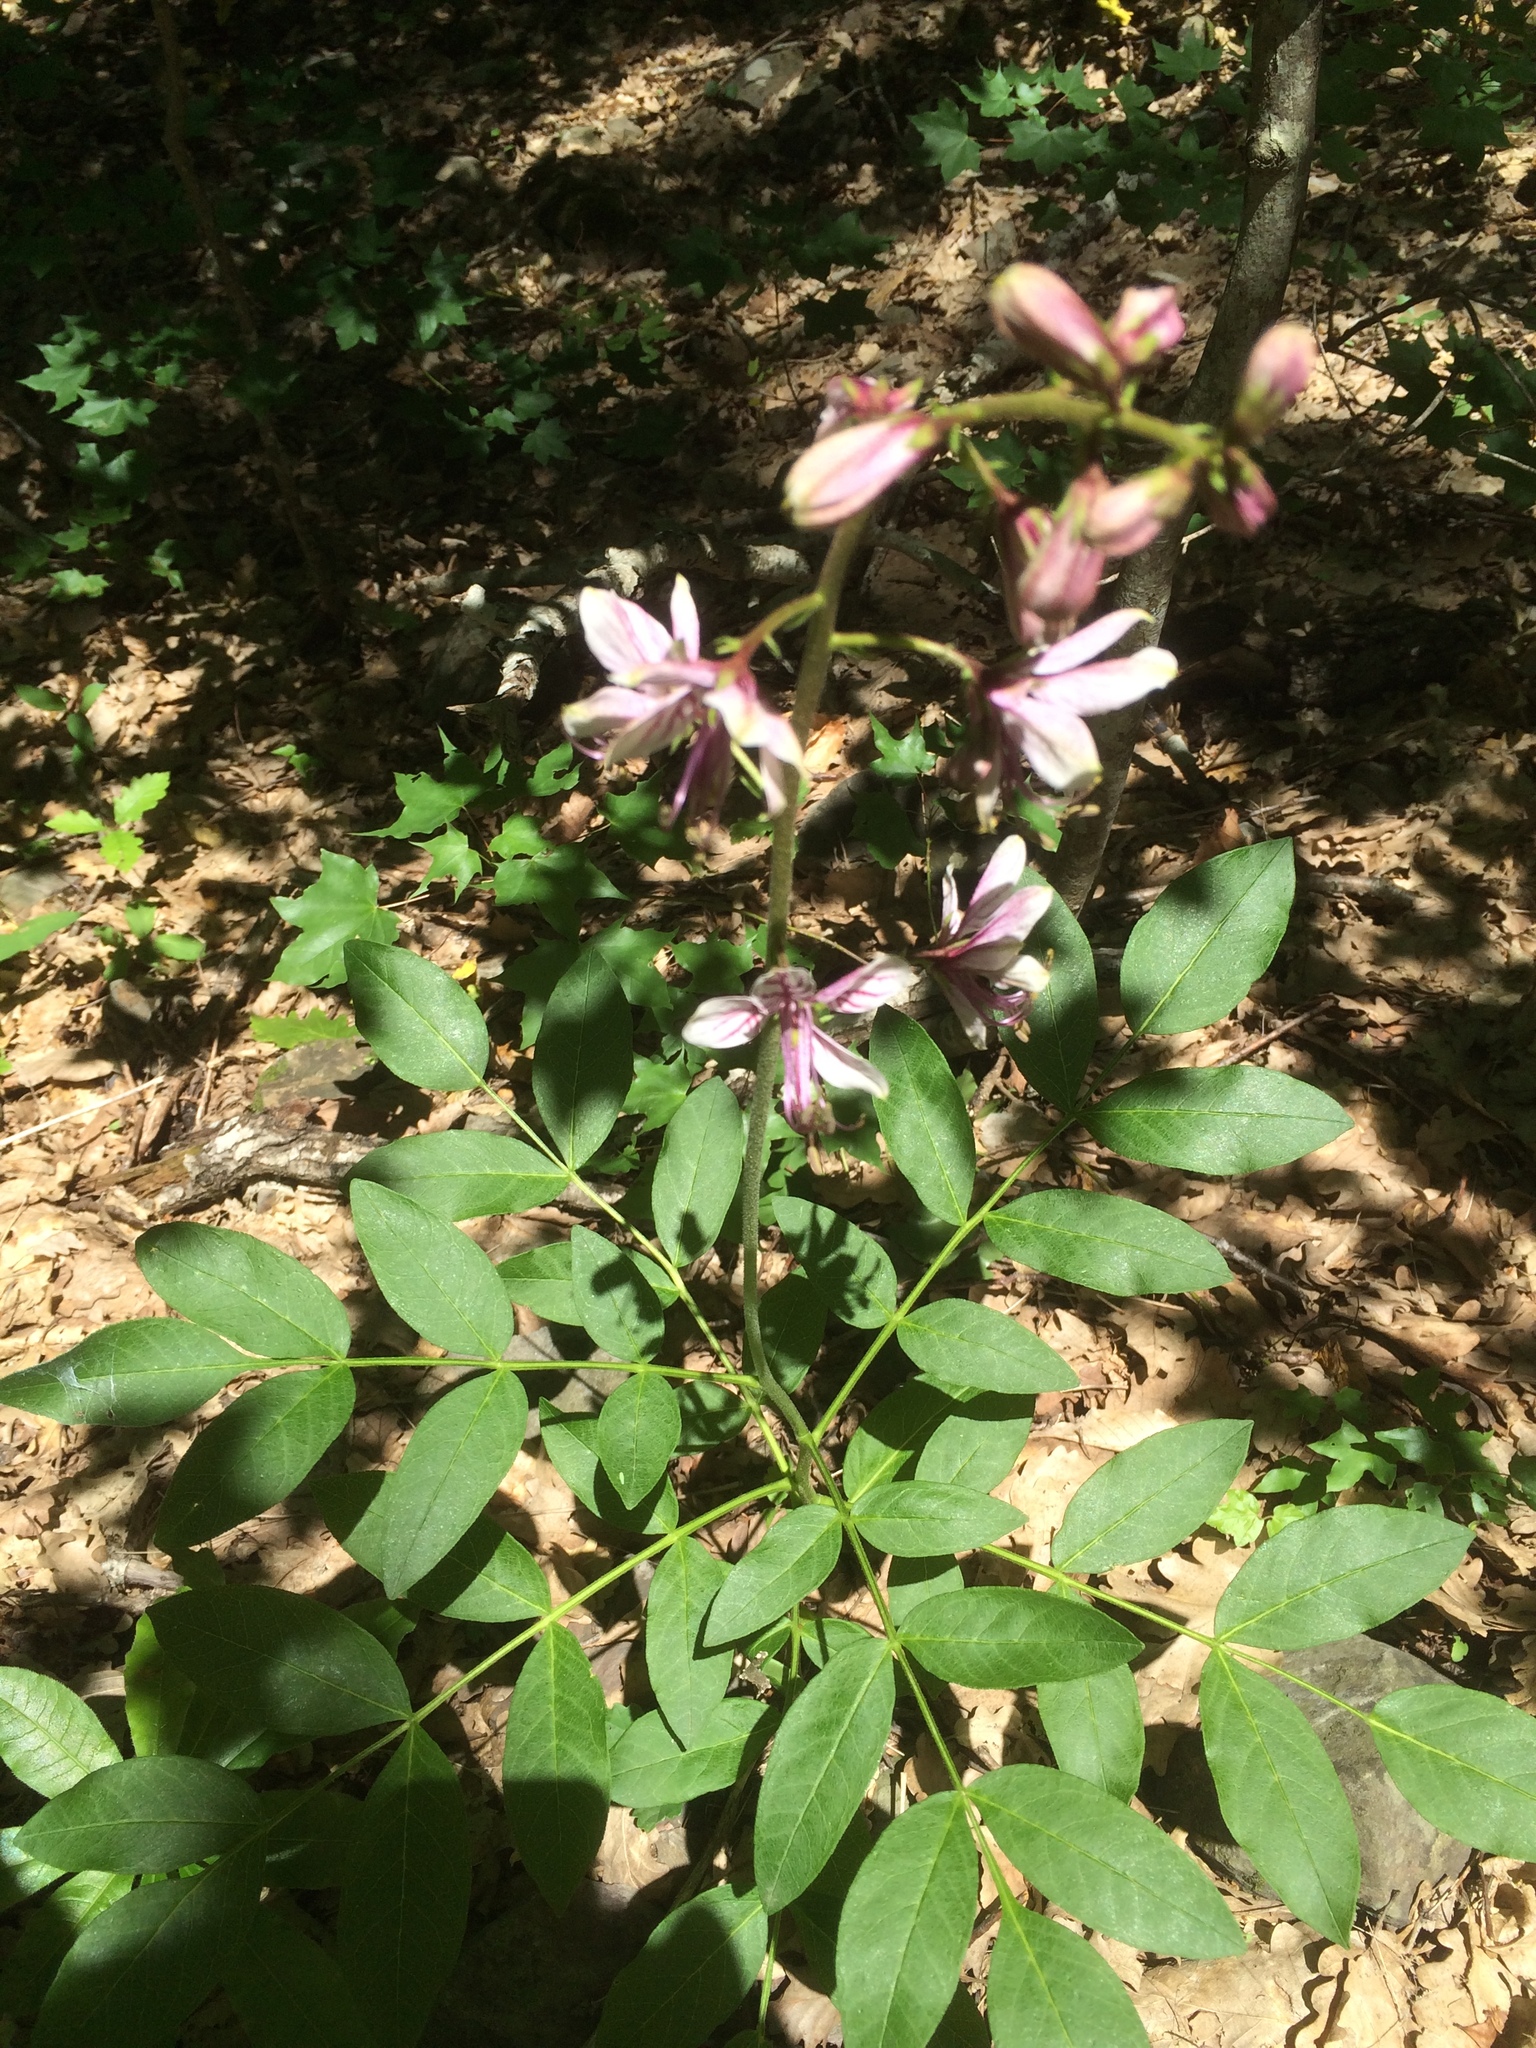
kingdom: Plantae
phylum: Tracheophyta
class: Magnoliopsida
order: Sapindales
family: Rutaceae
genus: Dictamnus
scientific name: Dictamnus albus
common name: Gasplant
